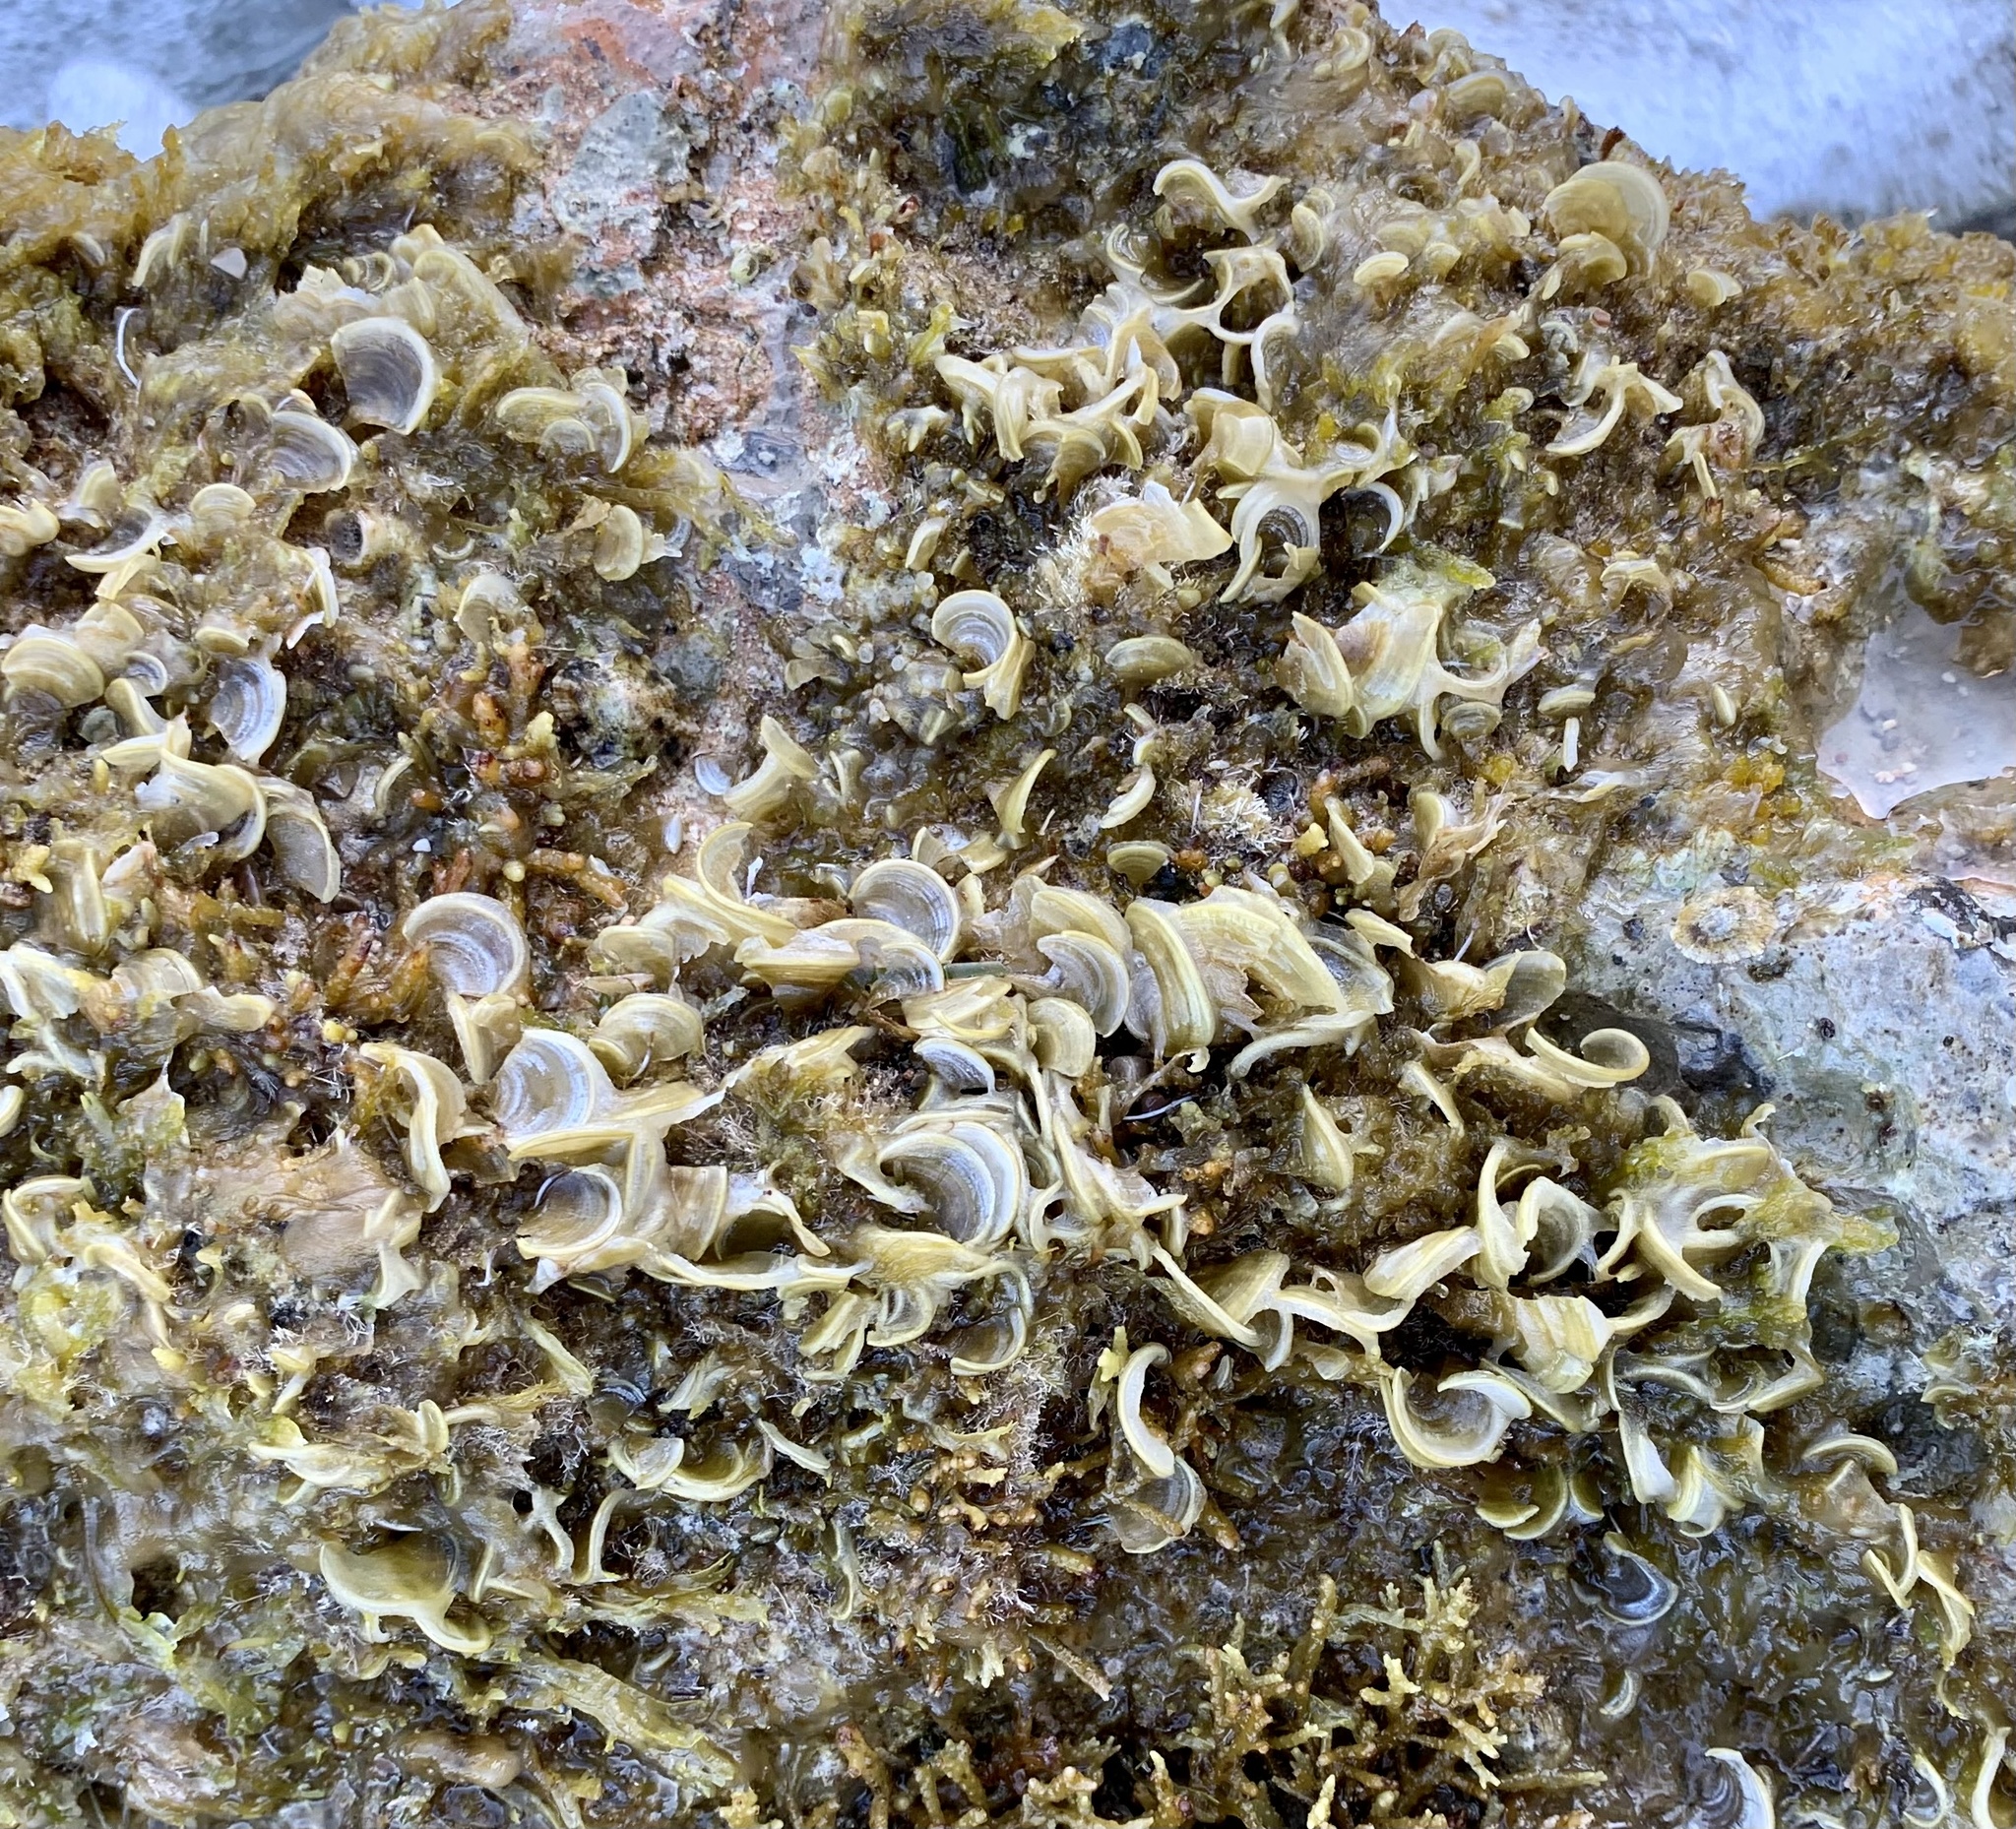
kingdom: Chromista
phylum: Ochrophyta
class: Phaeophyceae
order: Dictyotales
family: Dictyotaceae
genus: Padina
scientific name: Padina pavonica
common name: Turkey feather alga
